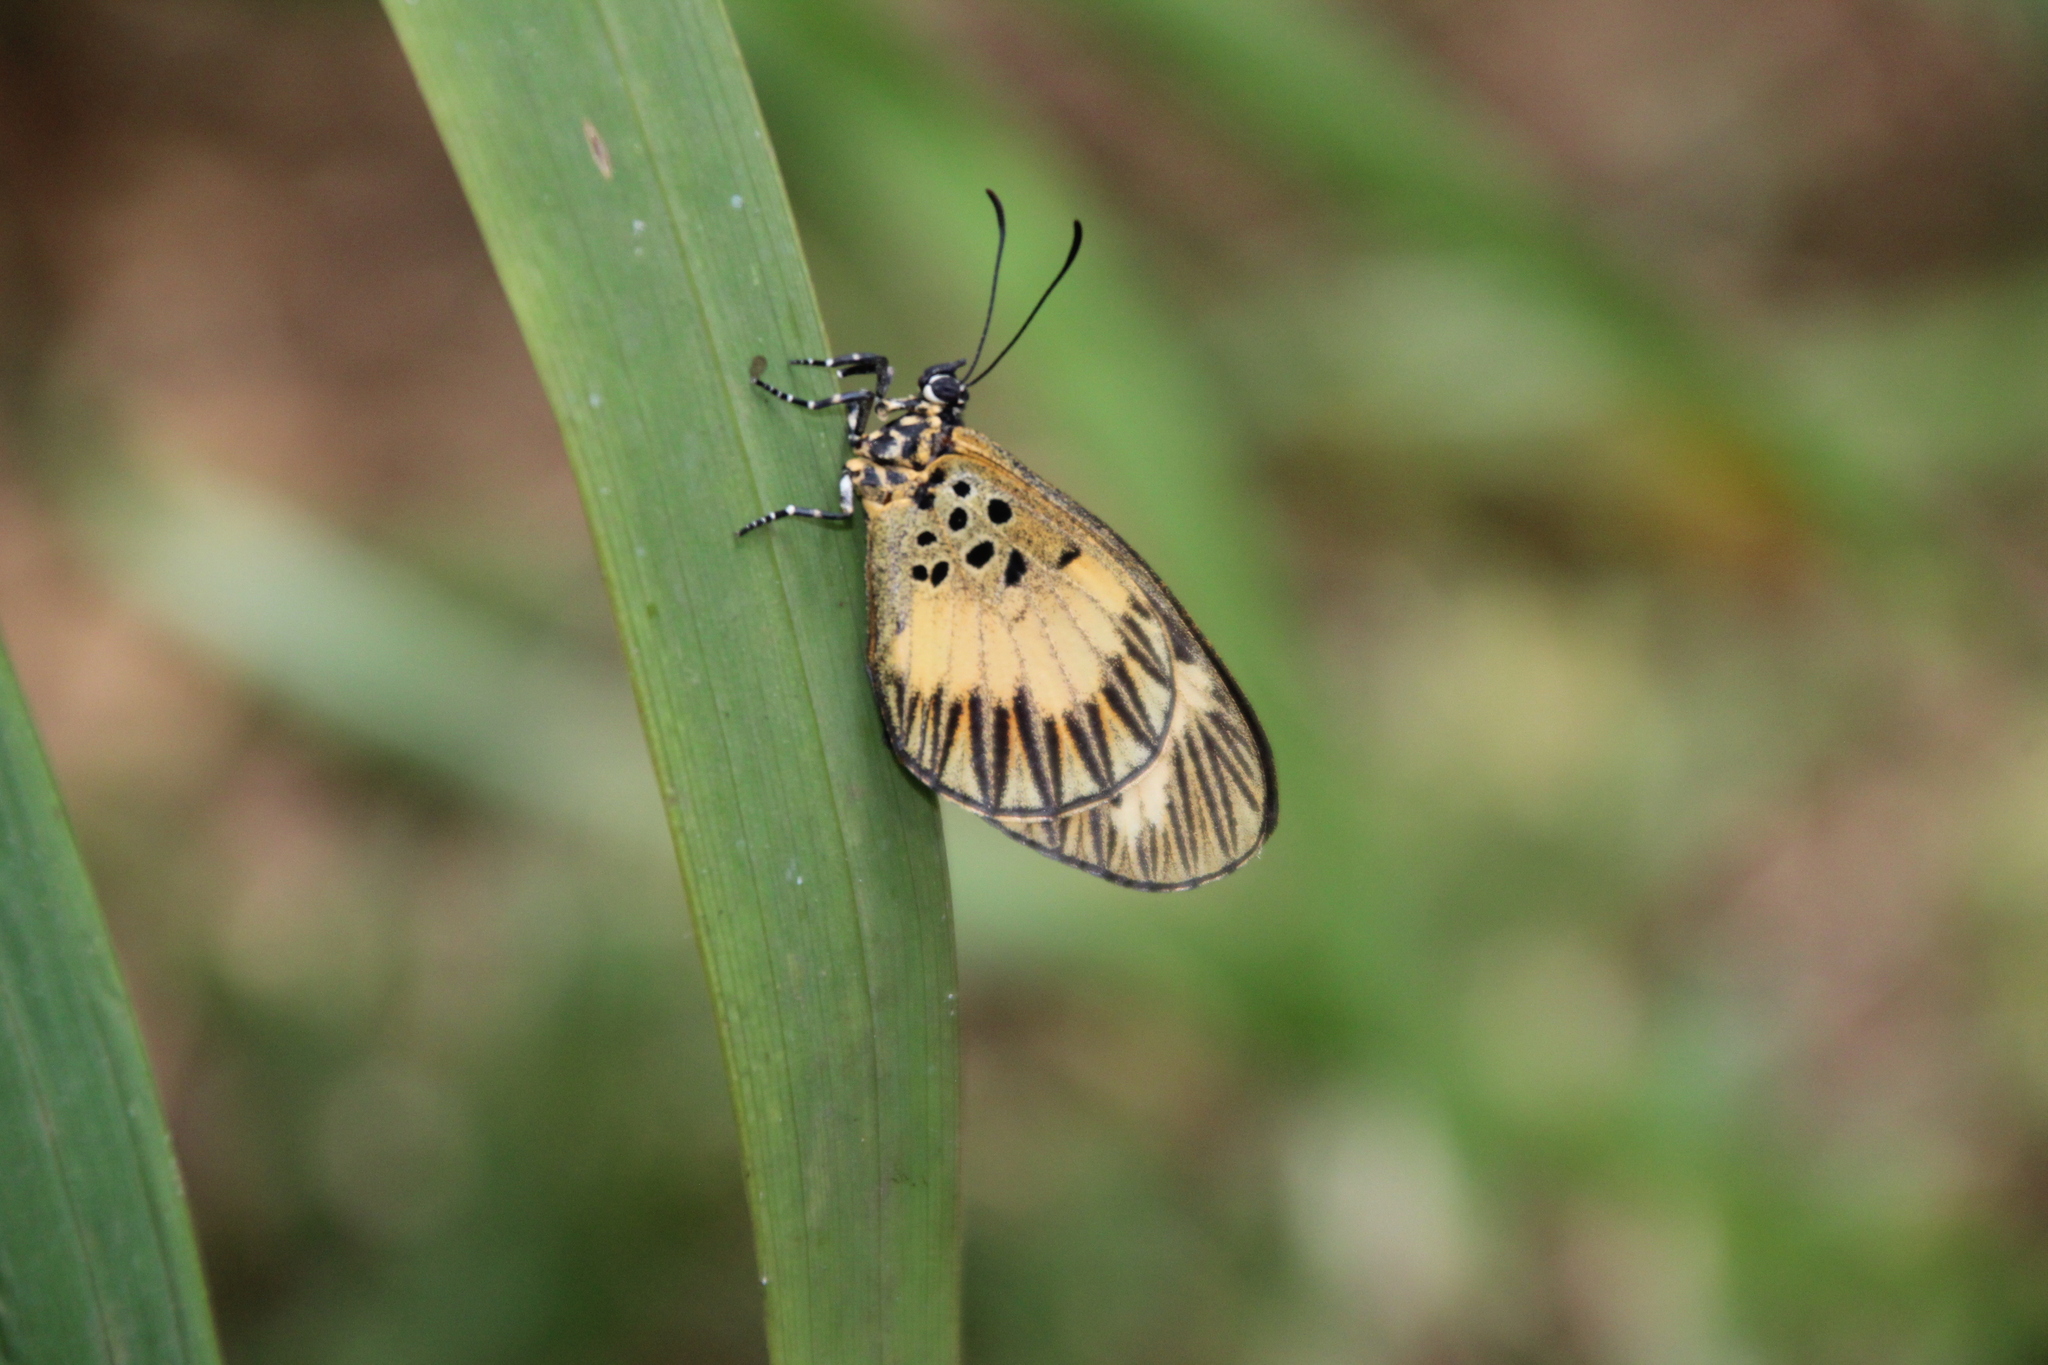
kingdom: Animalia
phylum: Arthropoda
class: Insecta
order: Lepidoptera
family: Lycaenidae
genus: Mimacraea
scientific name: Mimacraea krausi
